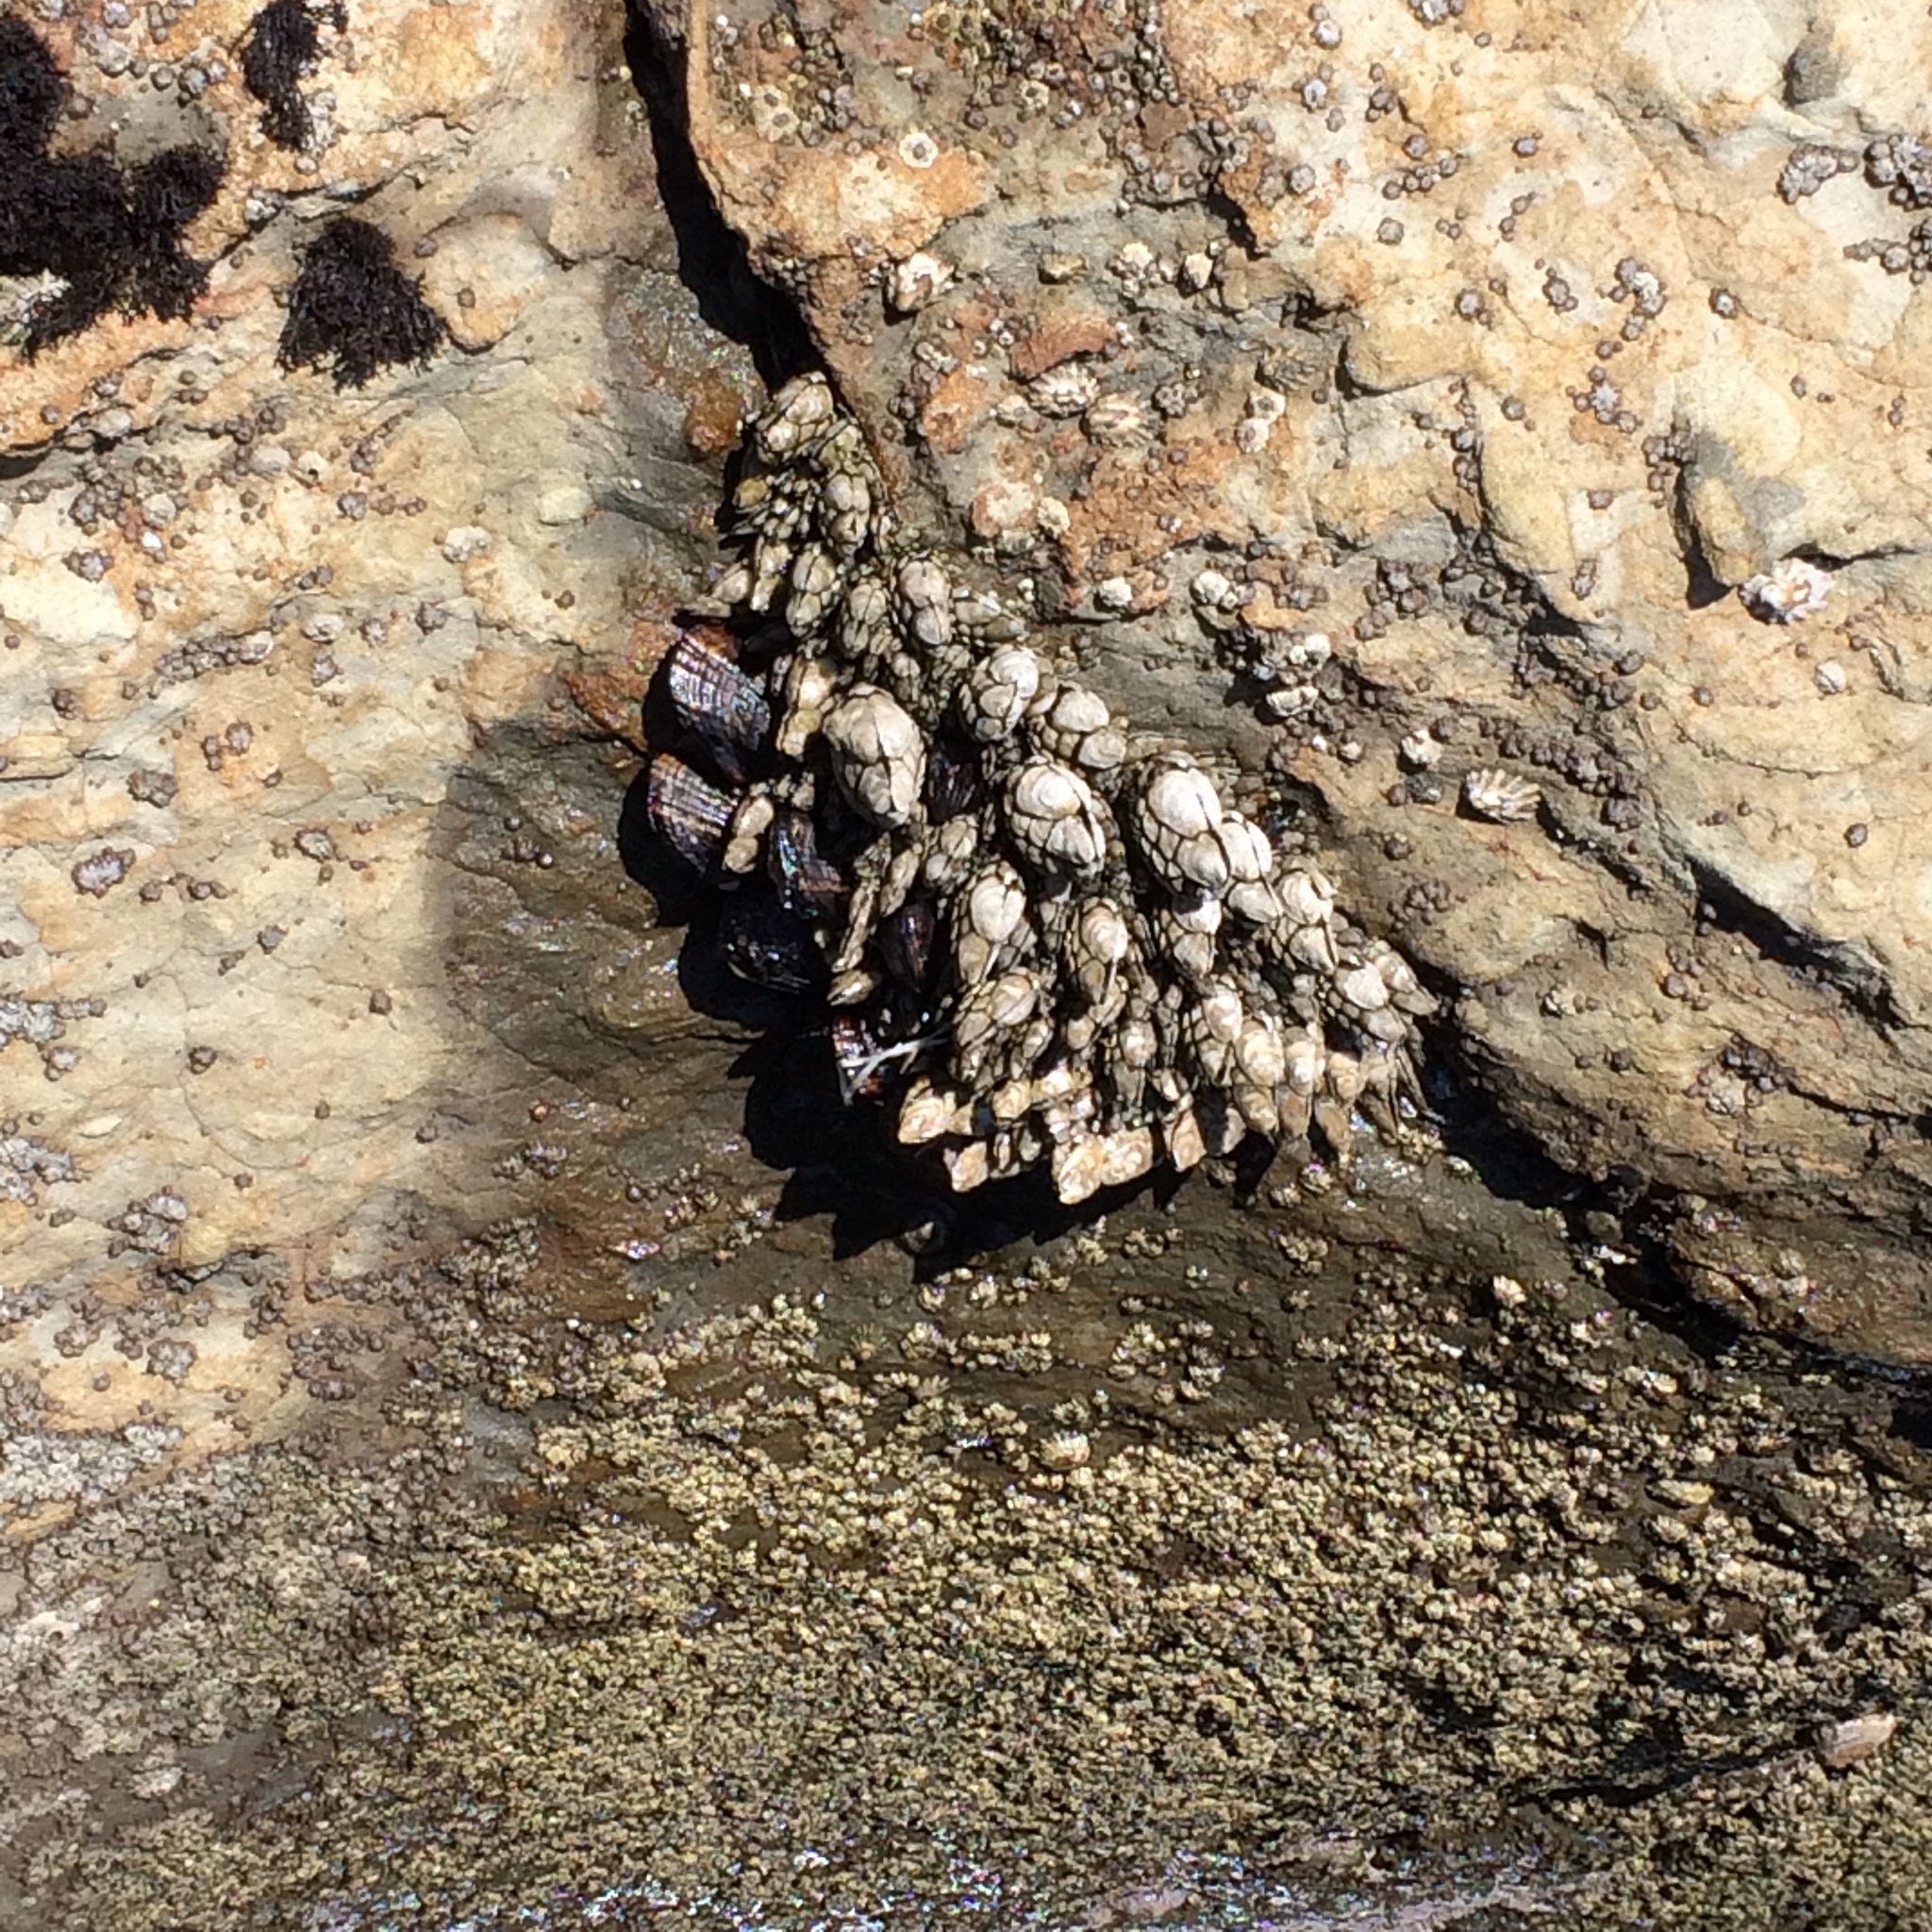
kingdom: Animalia
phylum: Arthropoda
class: Maxillopoda
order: Pedunculata
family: Pollicipedidae
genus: Pollicipes
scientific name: Pollicipes polymerus
